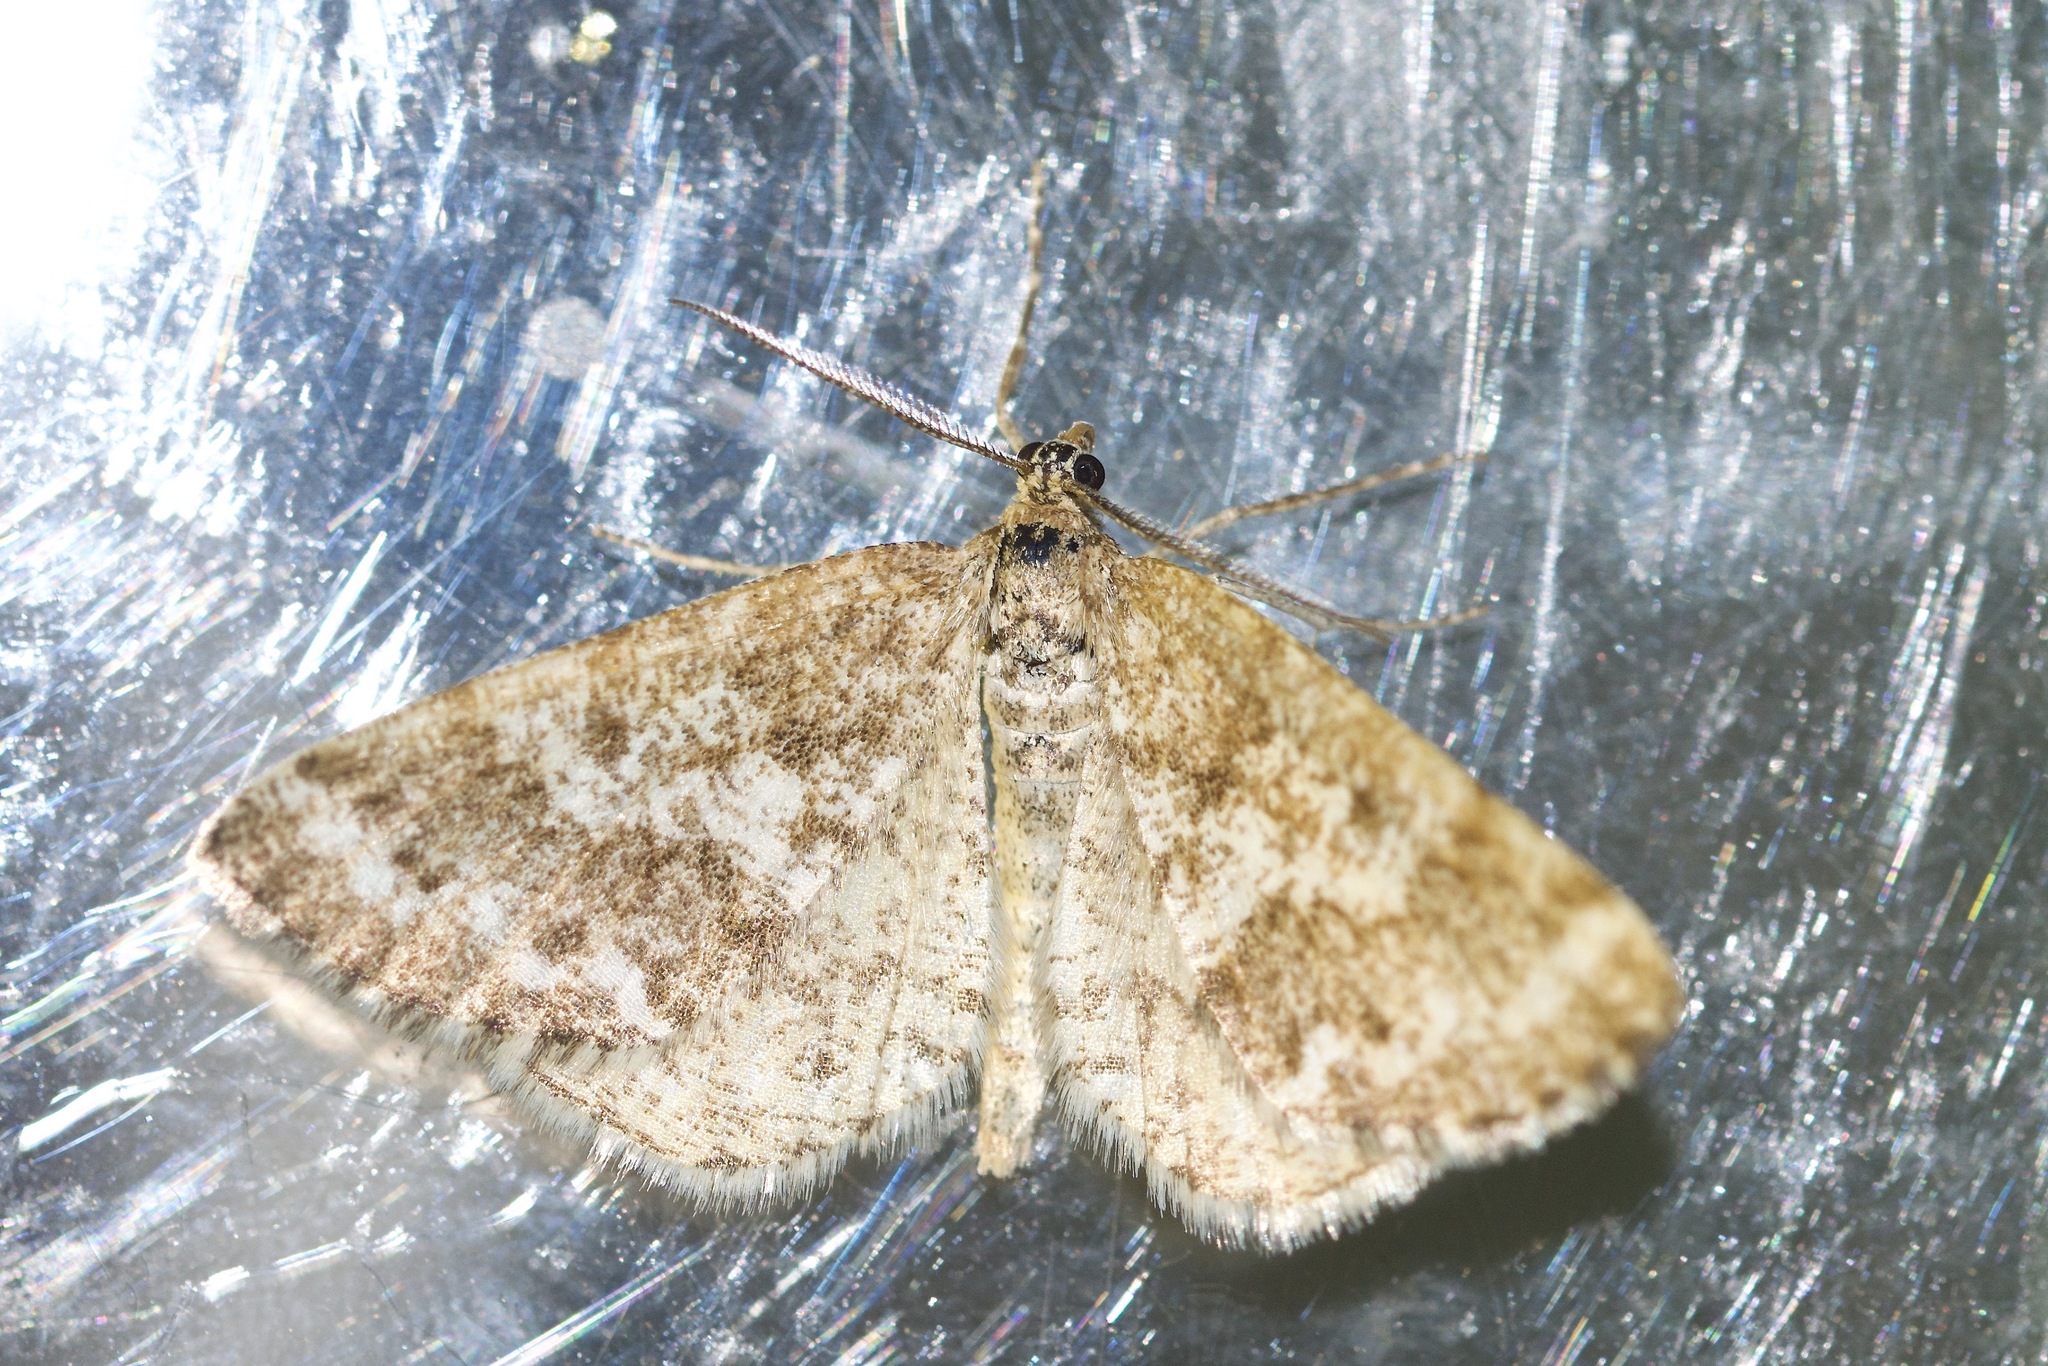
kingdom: Animalia
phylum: Arthropoda
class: Insecta
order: Lepidoptera
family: Geometridae
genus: Eufidonia
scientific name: Eufidonia notataria
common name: Powder moth
